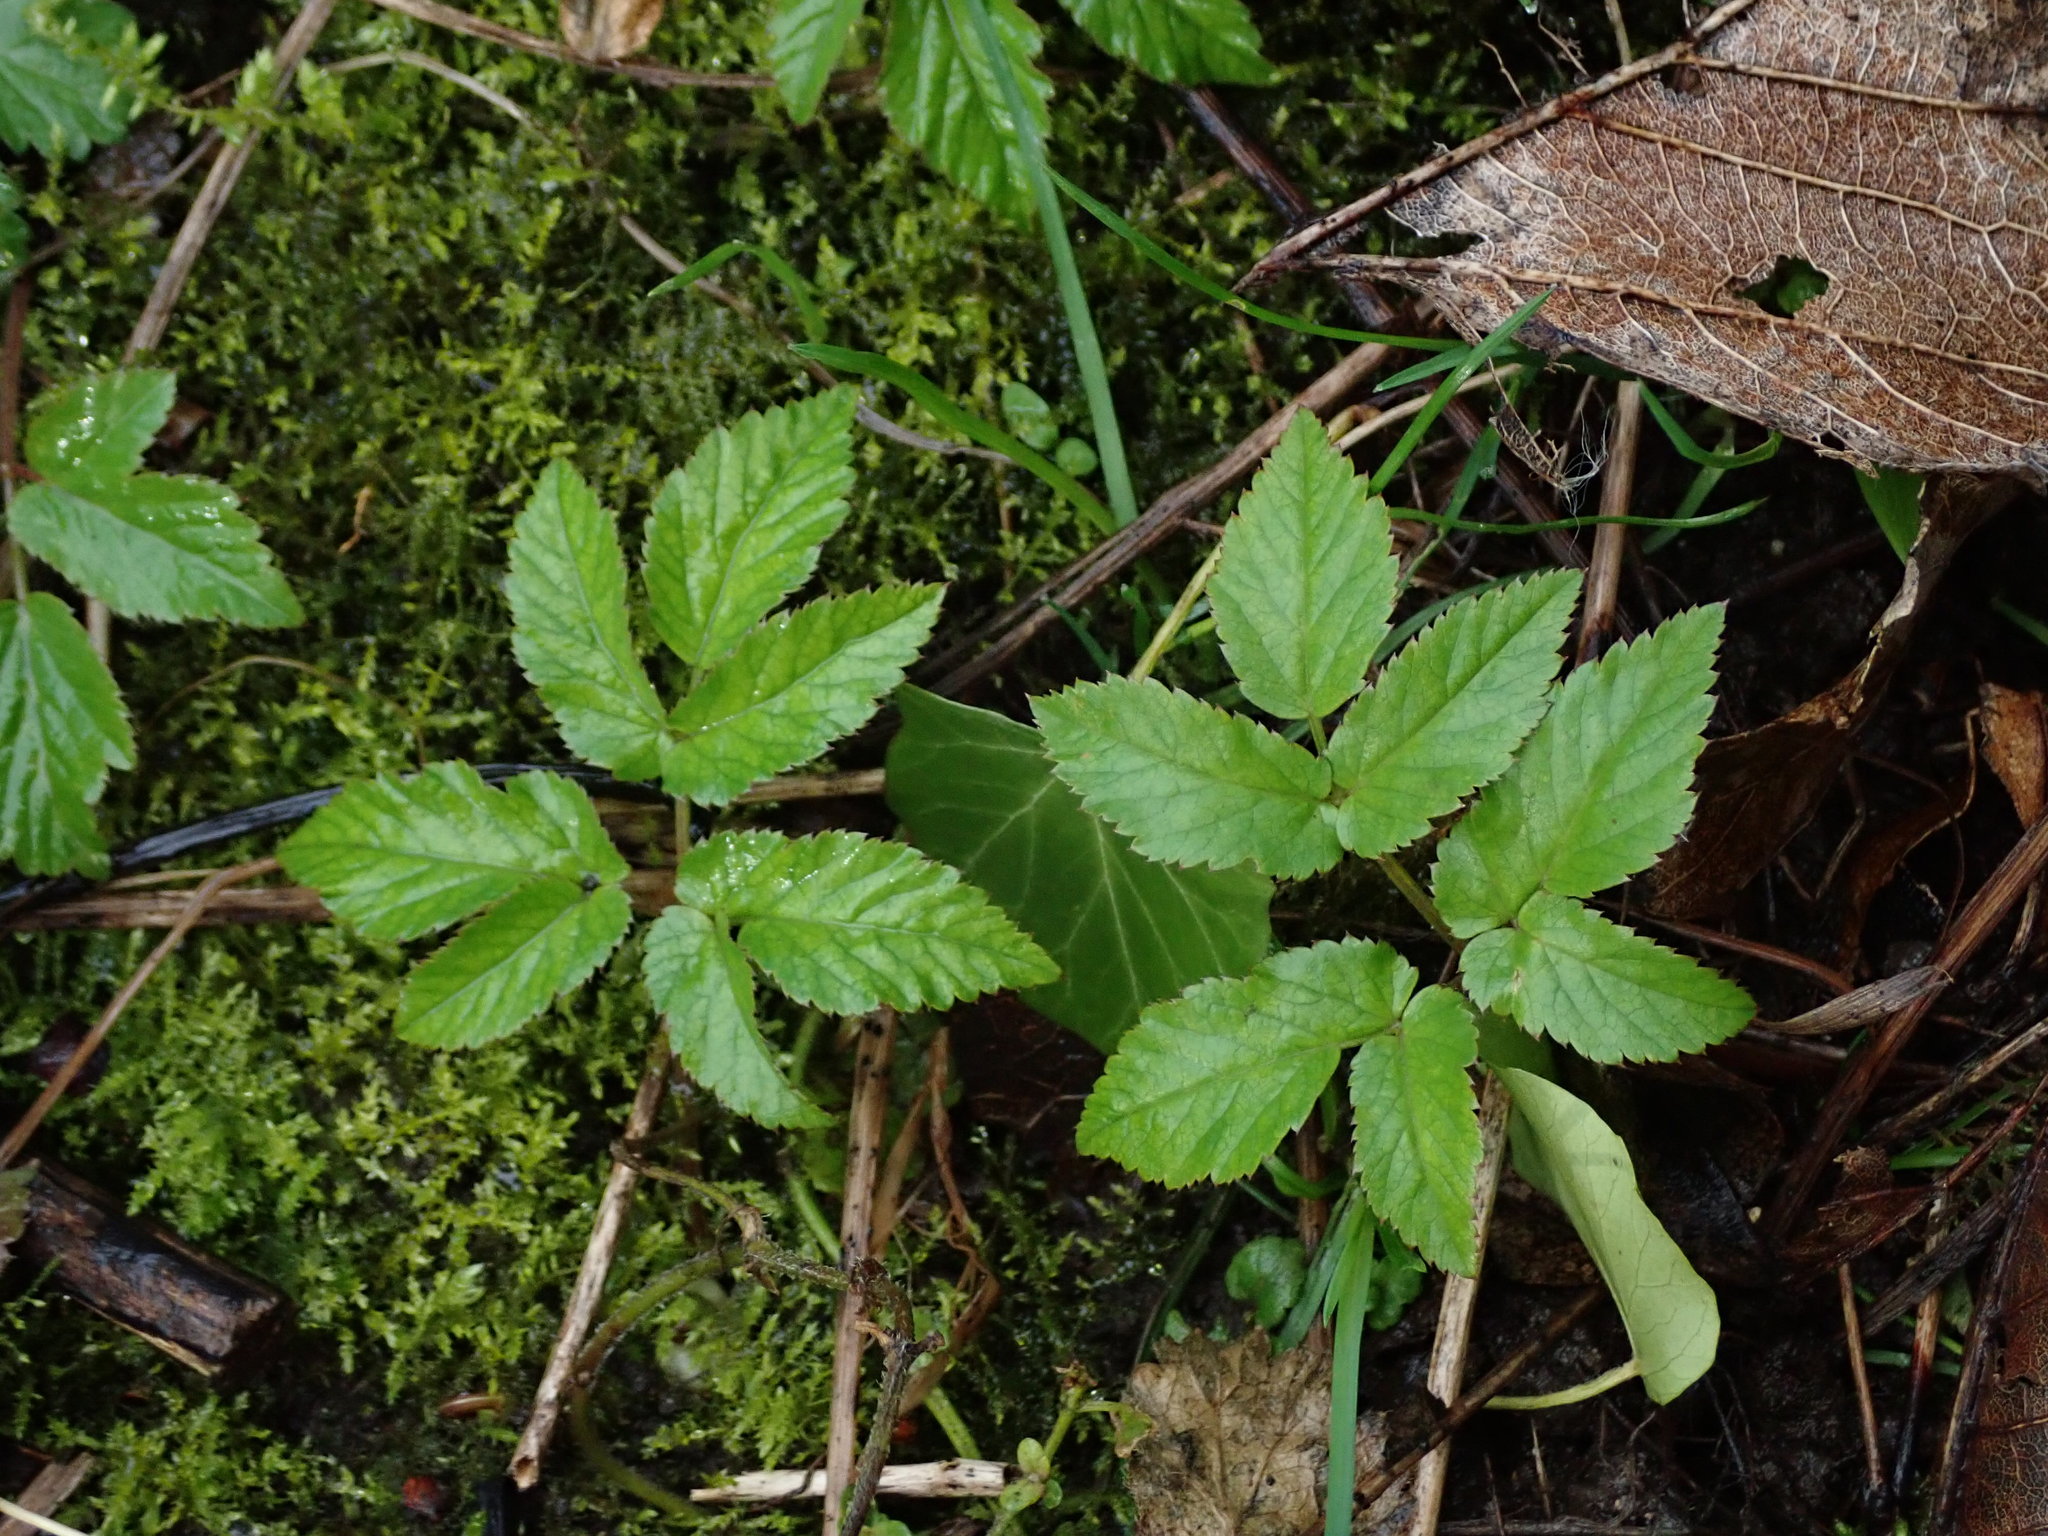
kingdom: Plantae
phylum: Tracheophyta
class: Magnoliopsida
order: Apiales
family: Apiaceae
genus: Aegopodium
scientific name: Aegopodium podagraria
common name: Ground-elder
